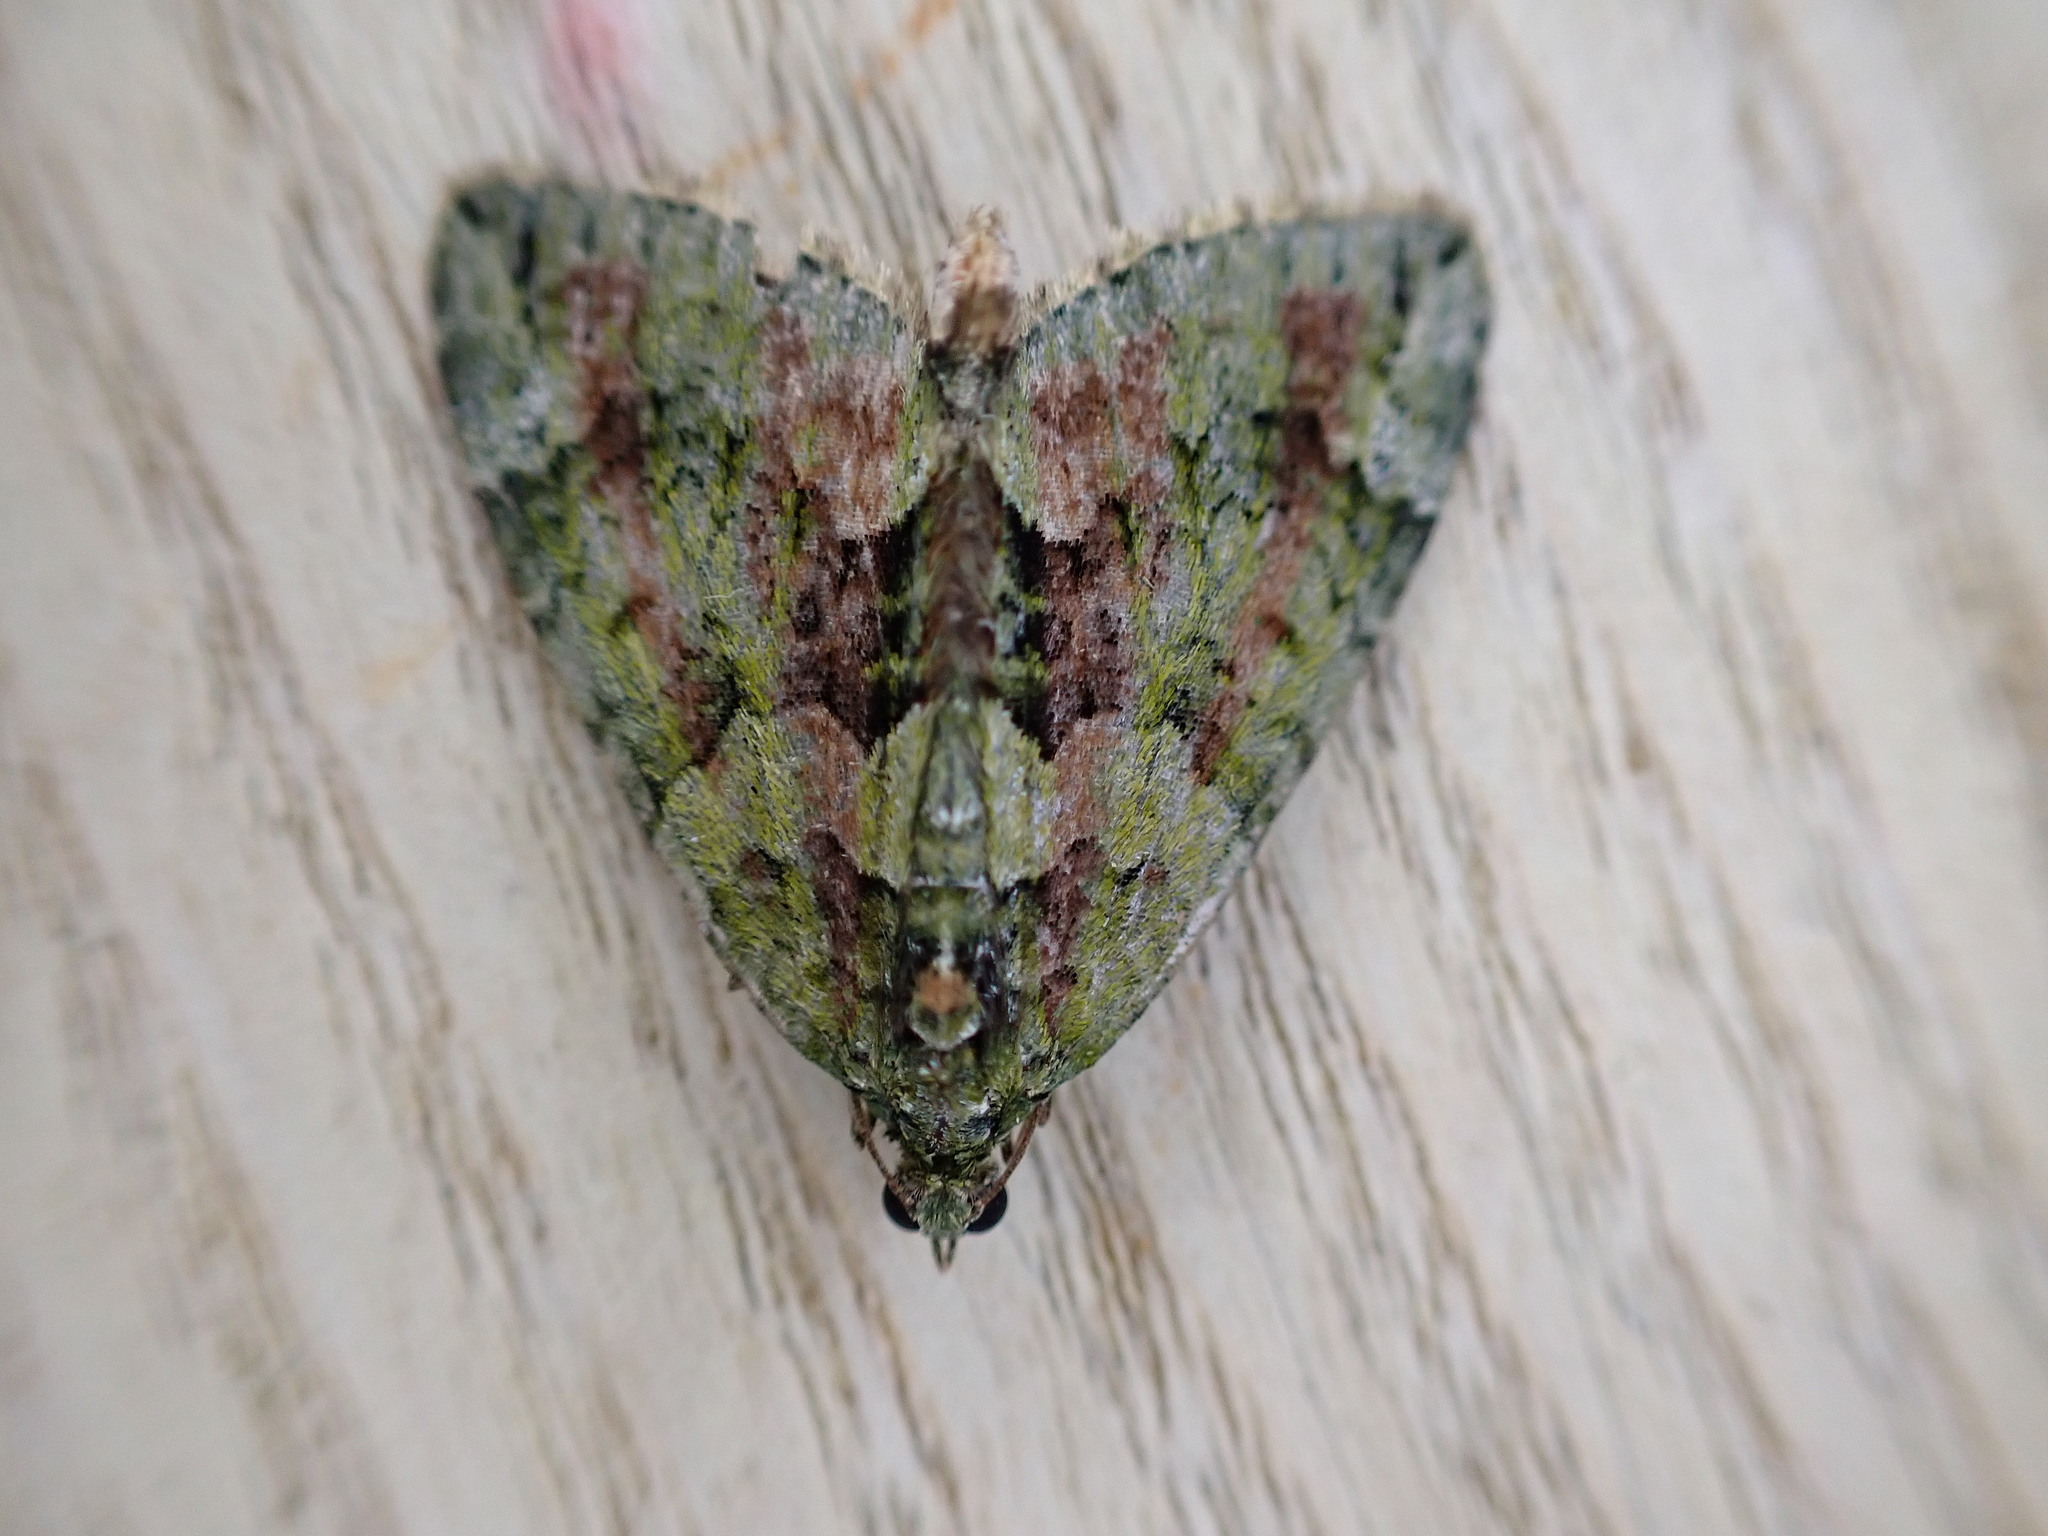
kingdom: Animalia
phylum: Arthropoda
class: Insecta
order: Lepidoptera
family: Geometridae
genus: Chloroclysta
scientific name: Chloroclysta siterata
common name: Red-green carpet
